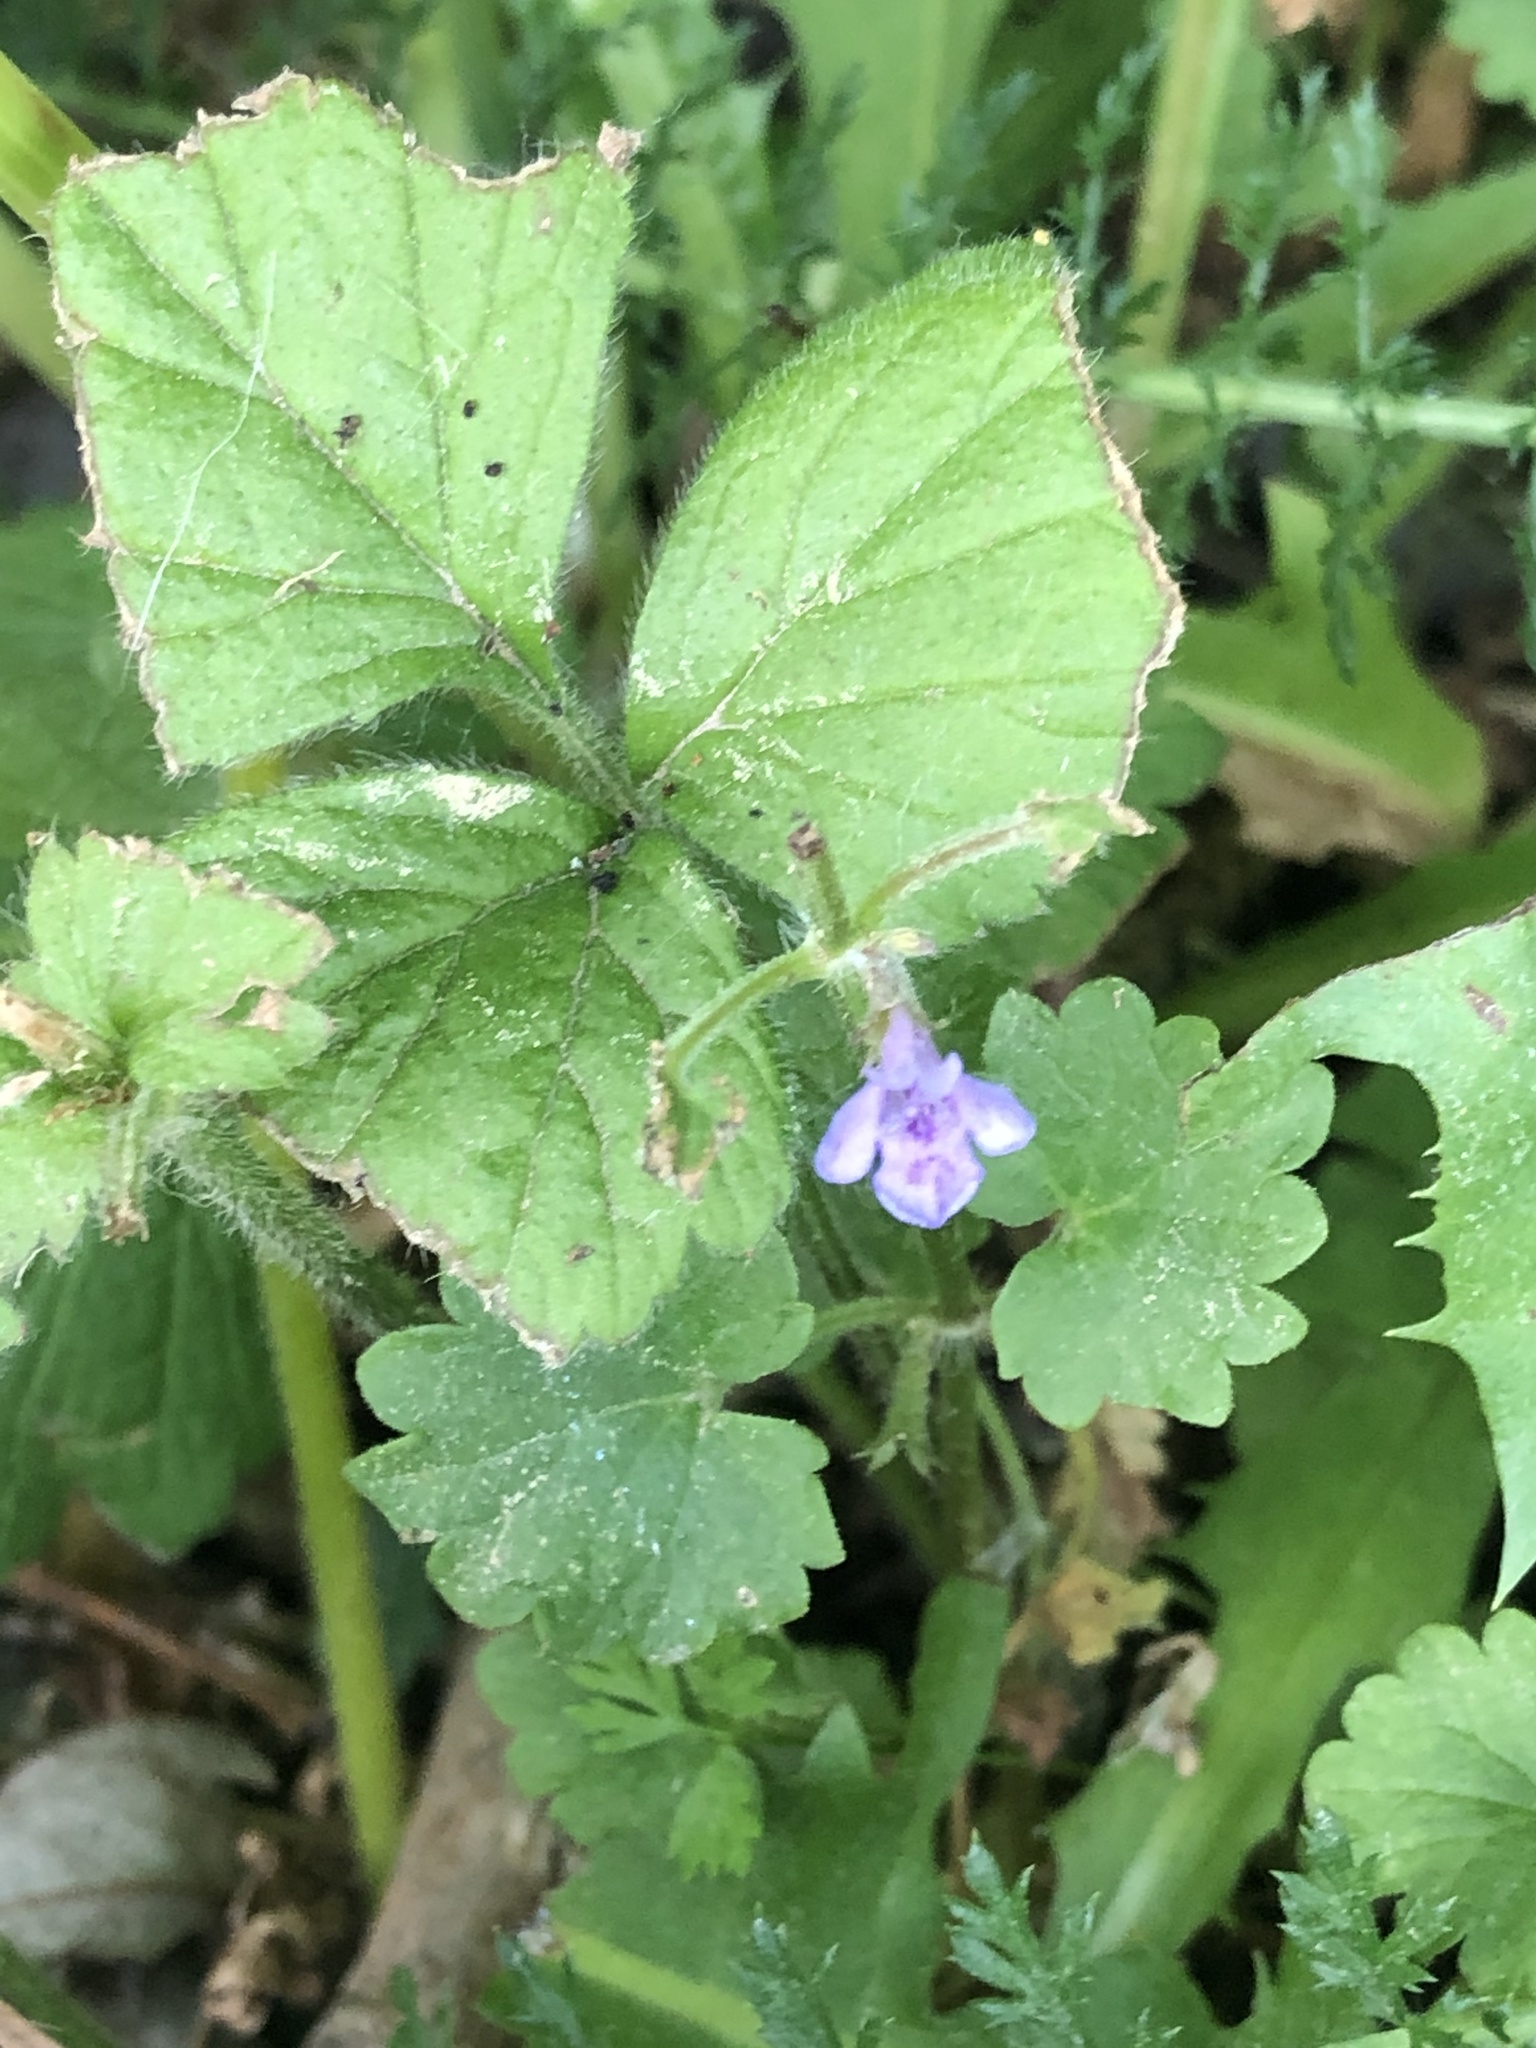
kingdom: Plantae
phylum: Tracheophyta
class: Magnoliopsida
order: Lamiales
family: Lamiaceae
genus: Glechoma
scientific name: Glechoma hederacea
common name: Ground ivy
